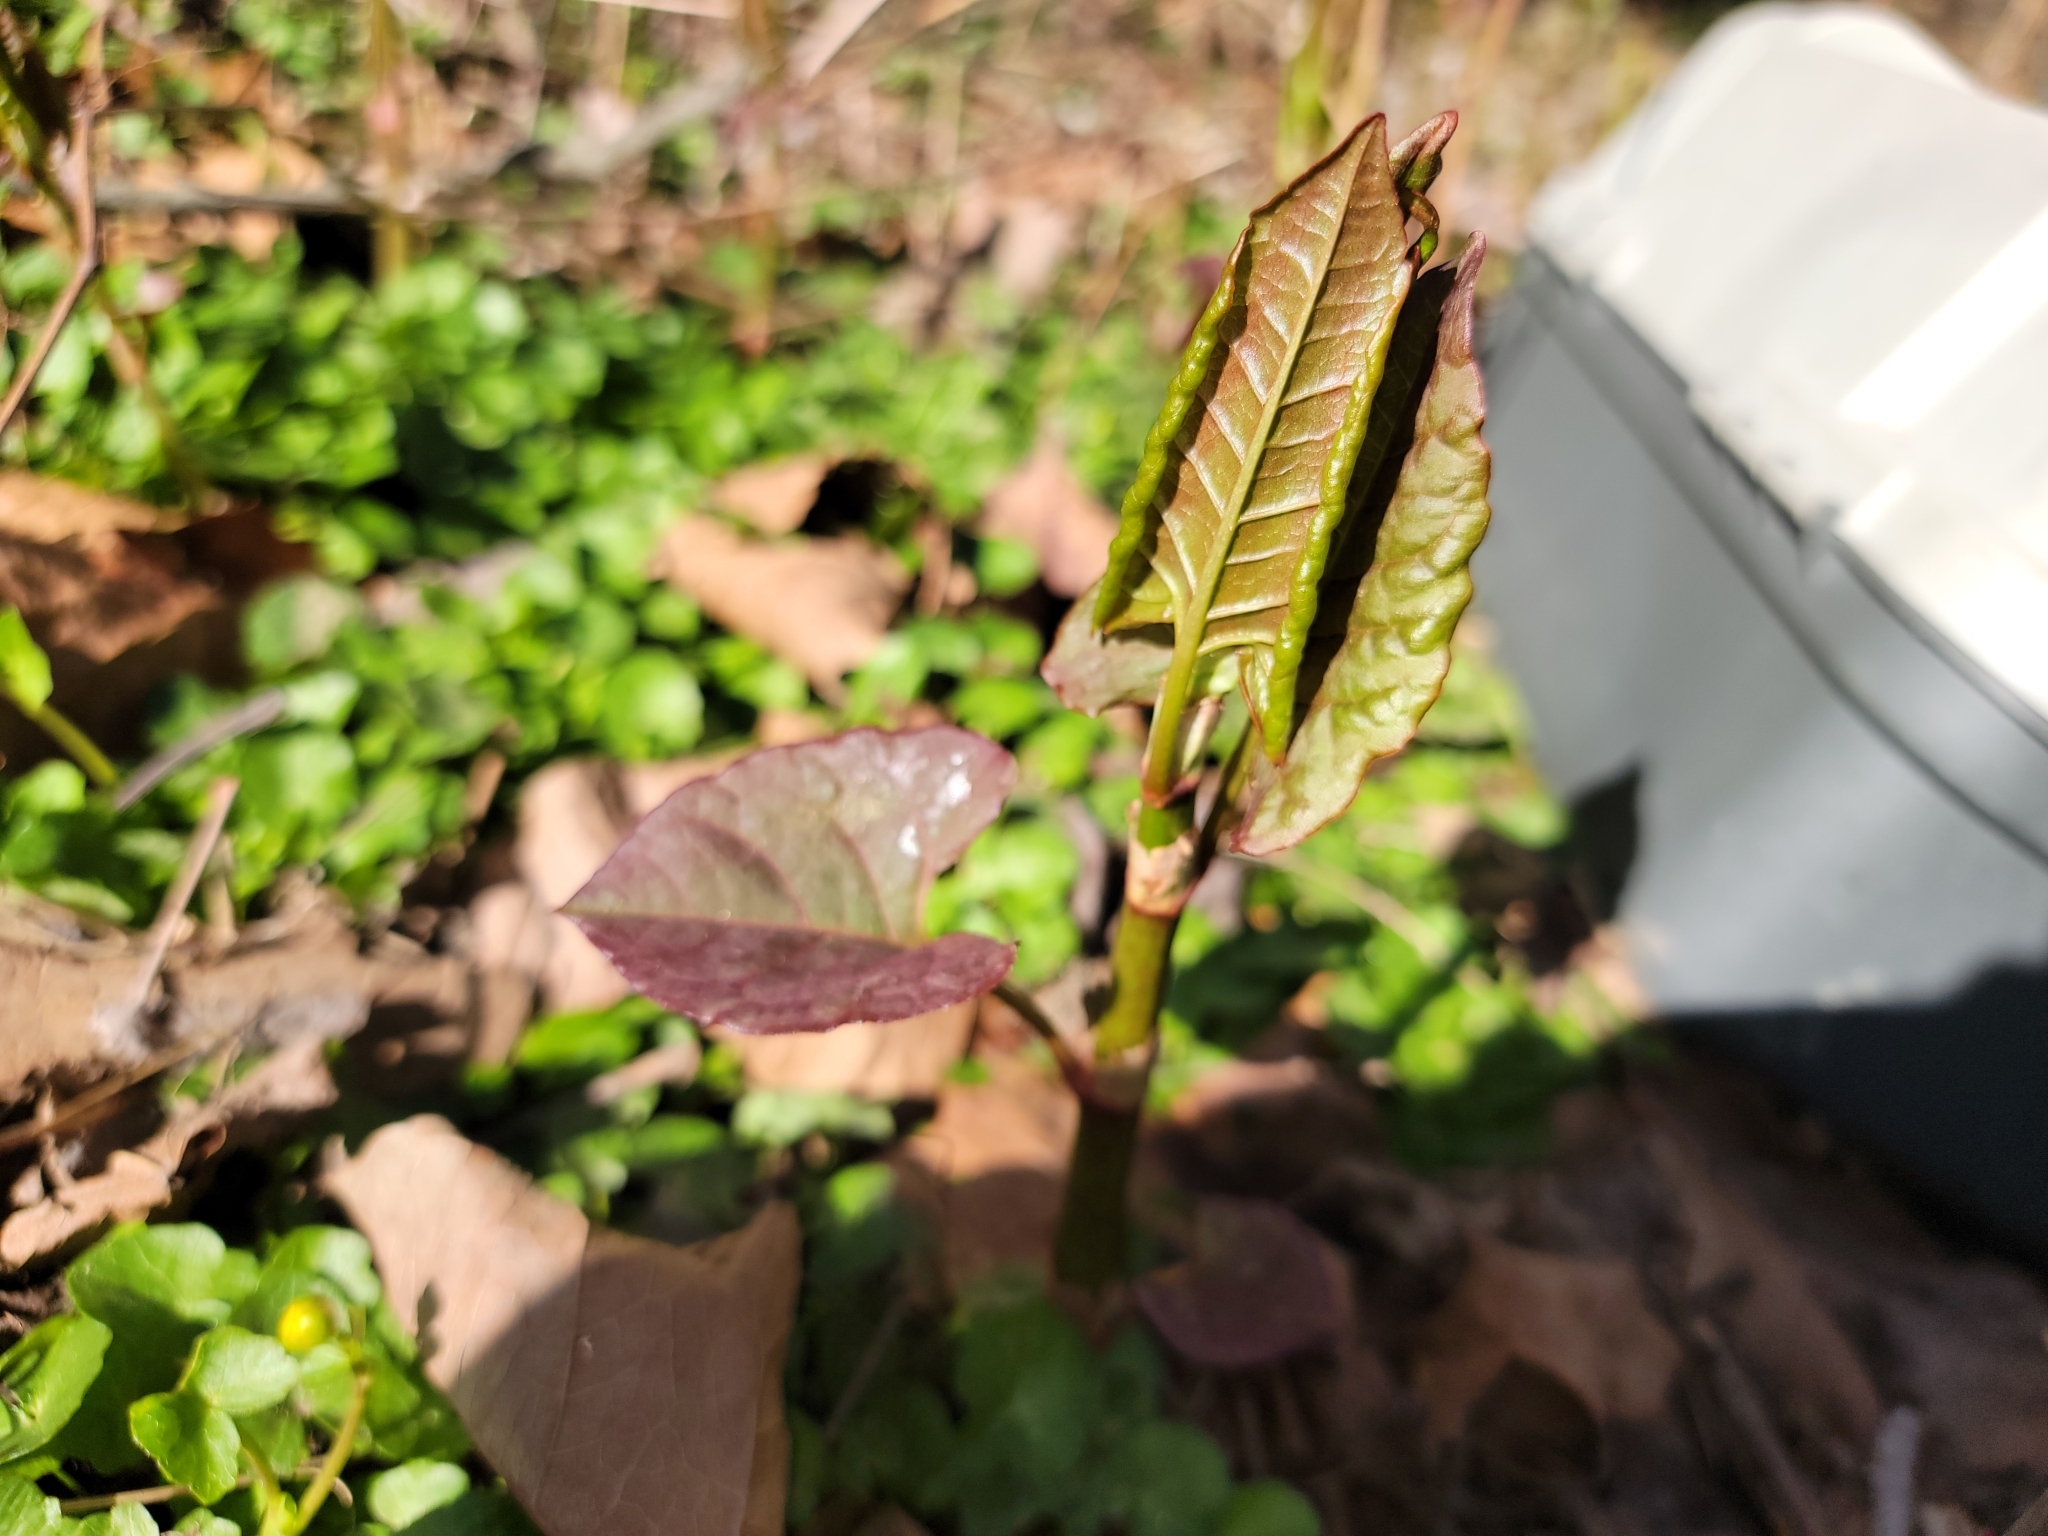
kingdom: Plantae
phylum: Tracheophyta
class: Magnoliopsida
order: Caryophyllales
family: Polygonaceae
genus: Reynoutria
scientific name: Reynoutria japonica
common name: Japanese knotweed
